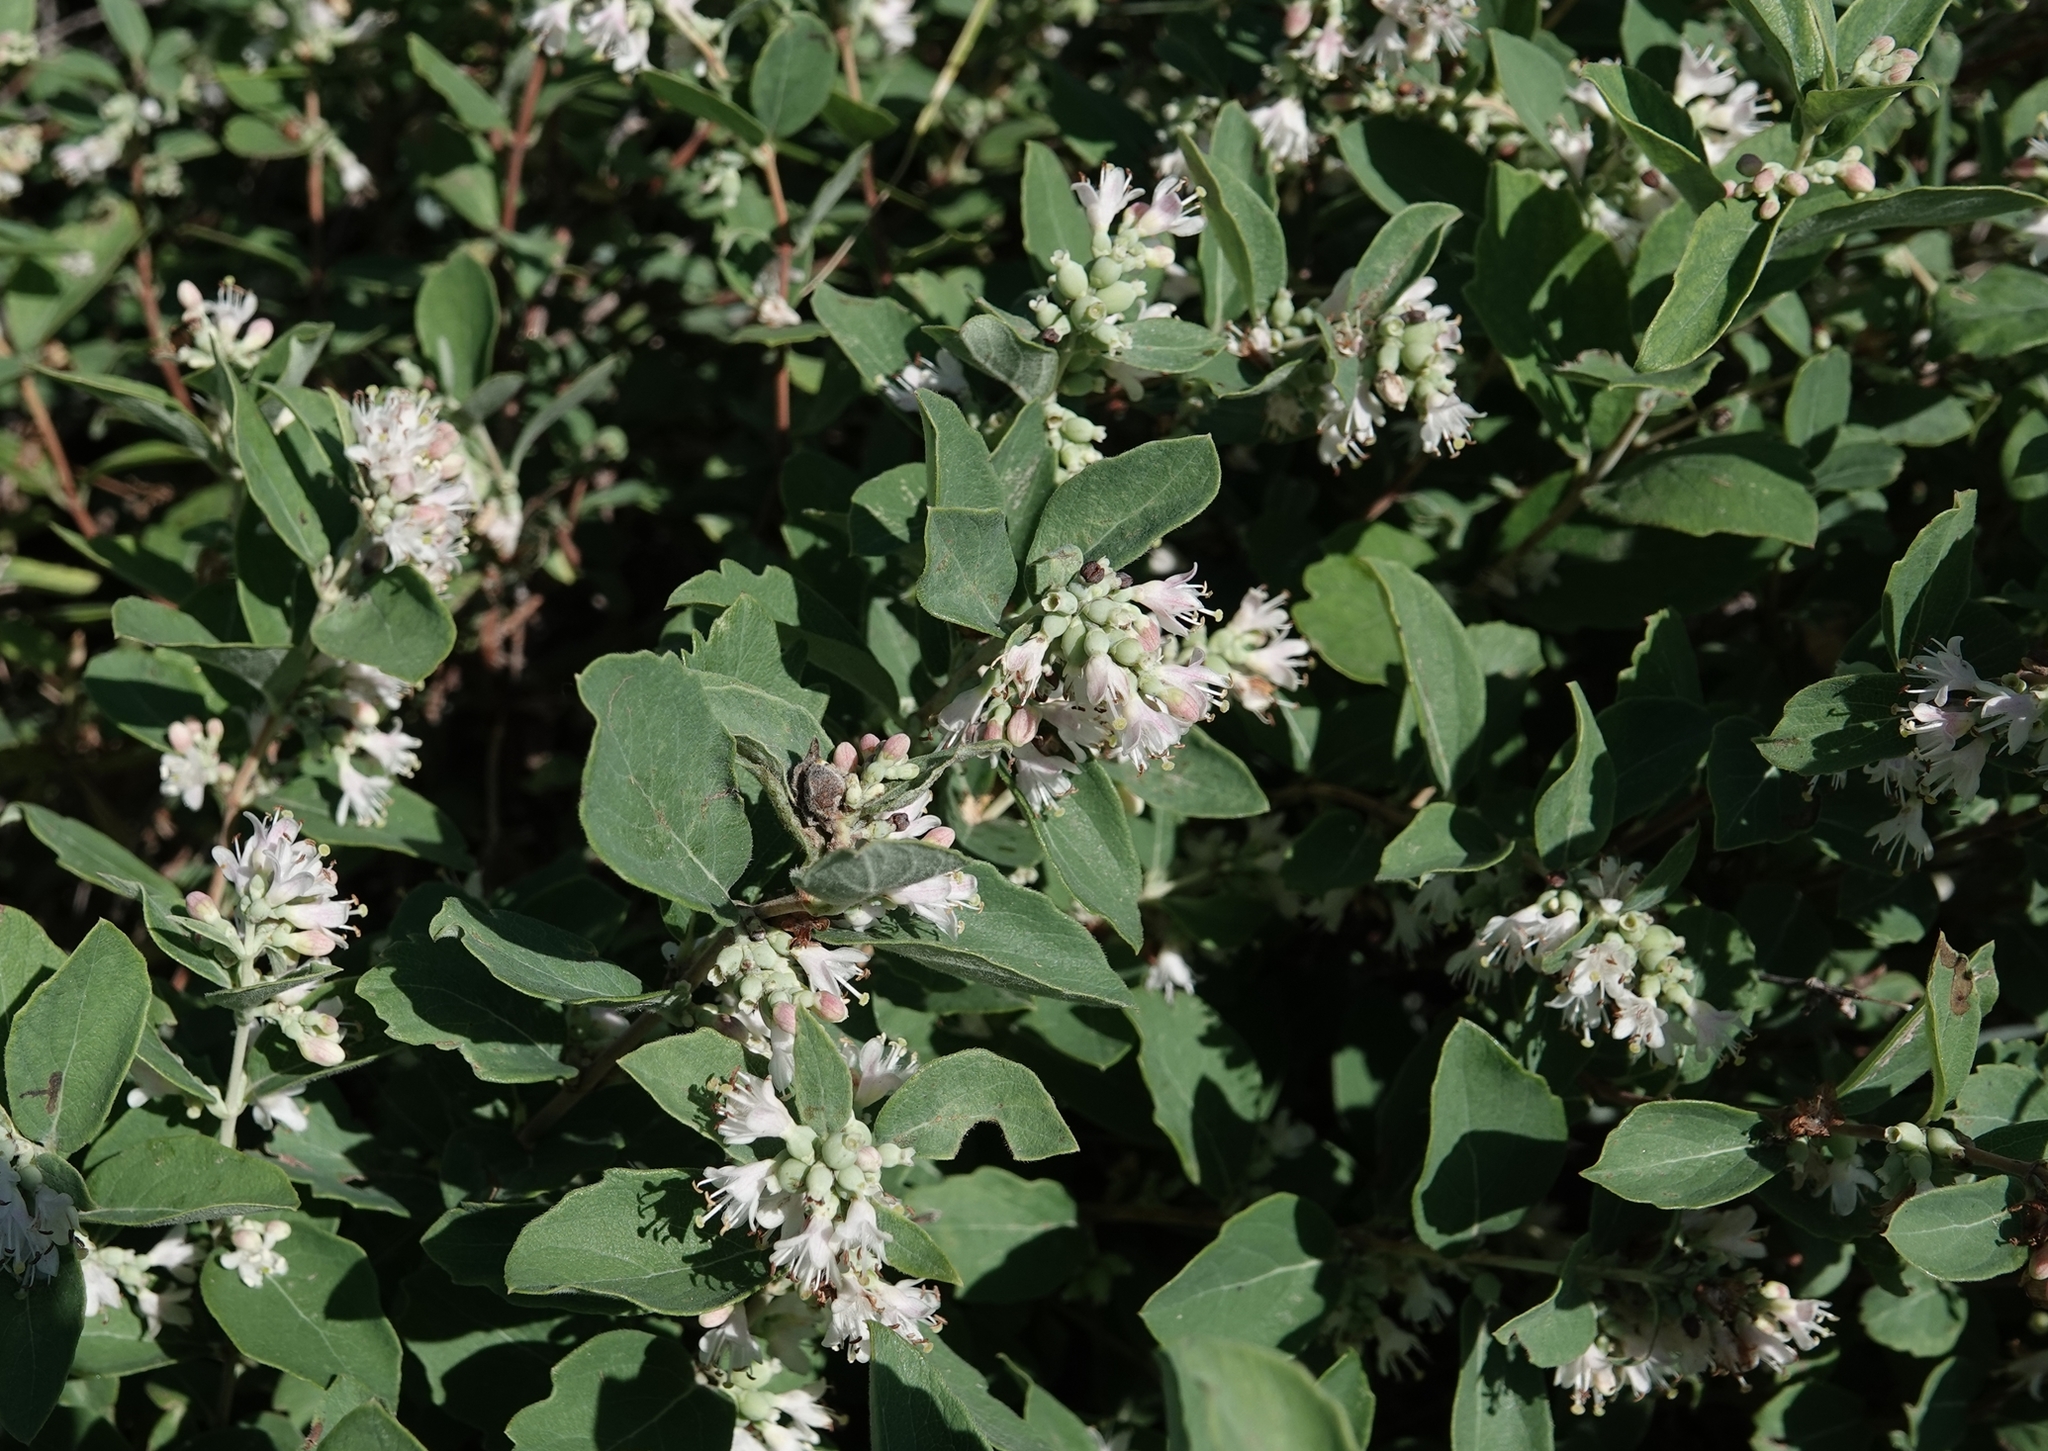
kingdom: Plantae
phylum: Tracheophyta
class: Magnoliopsida
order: Dipsacales
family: Caprifoliaceae
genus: Symphoricarpos
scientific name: Symphoricarpos occidentalis
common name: Wolfberry
